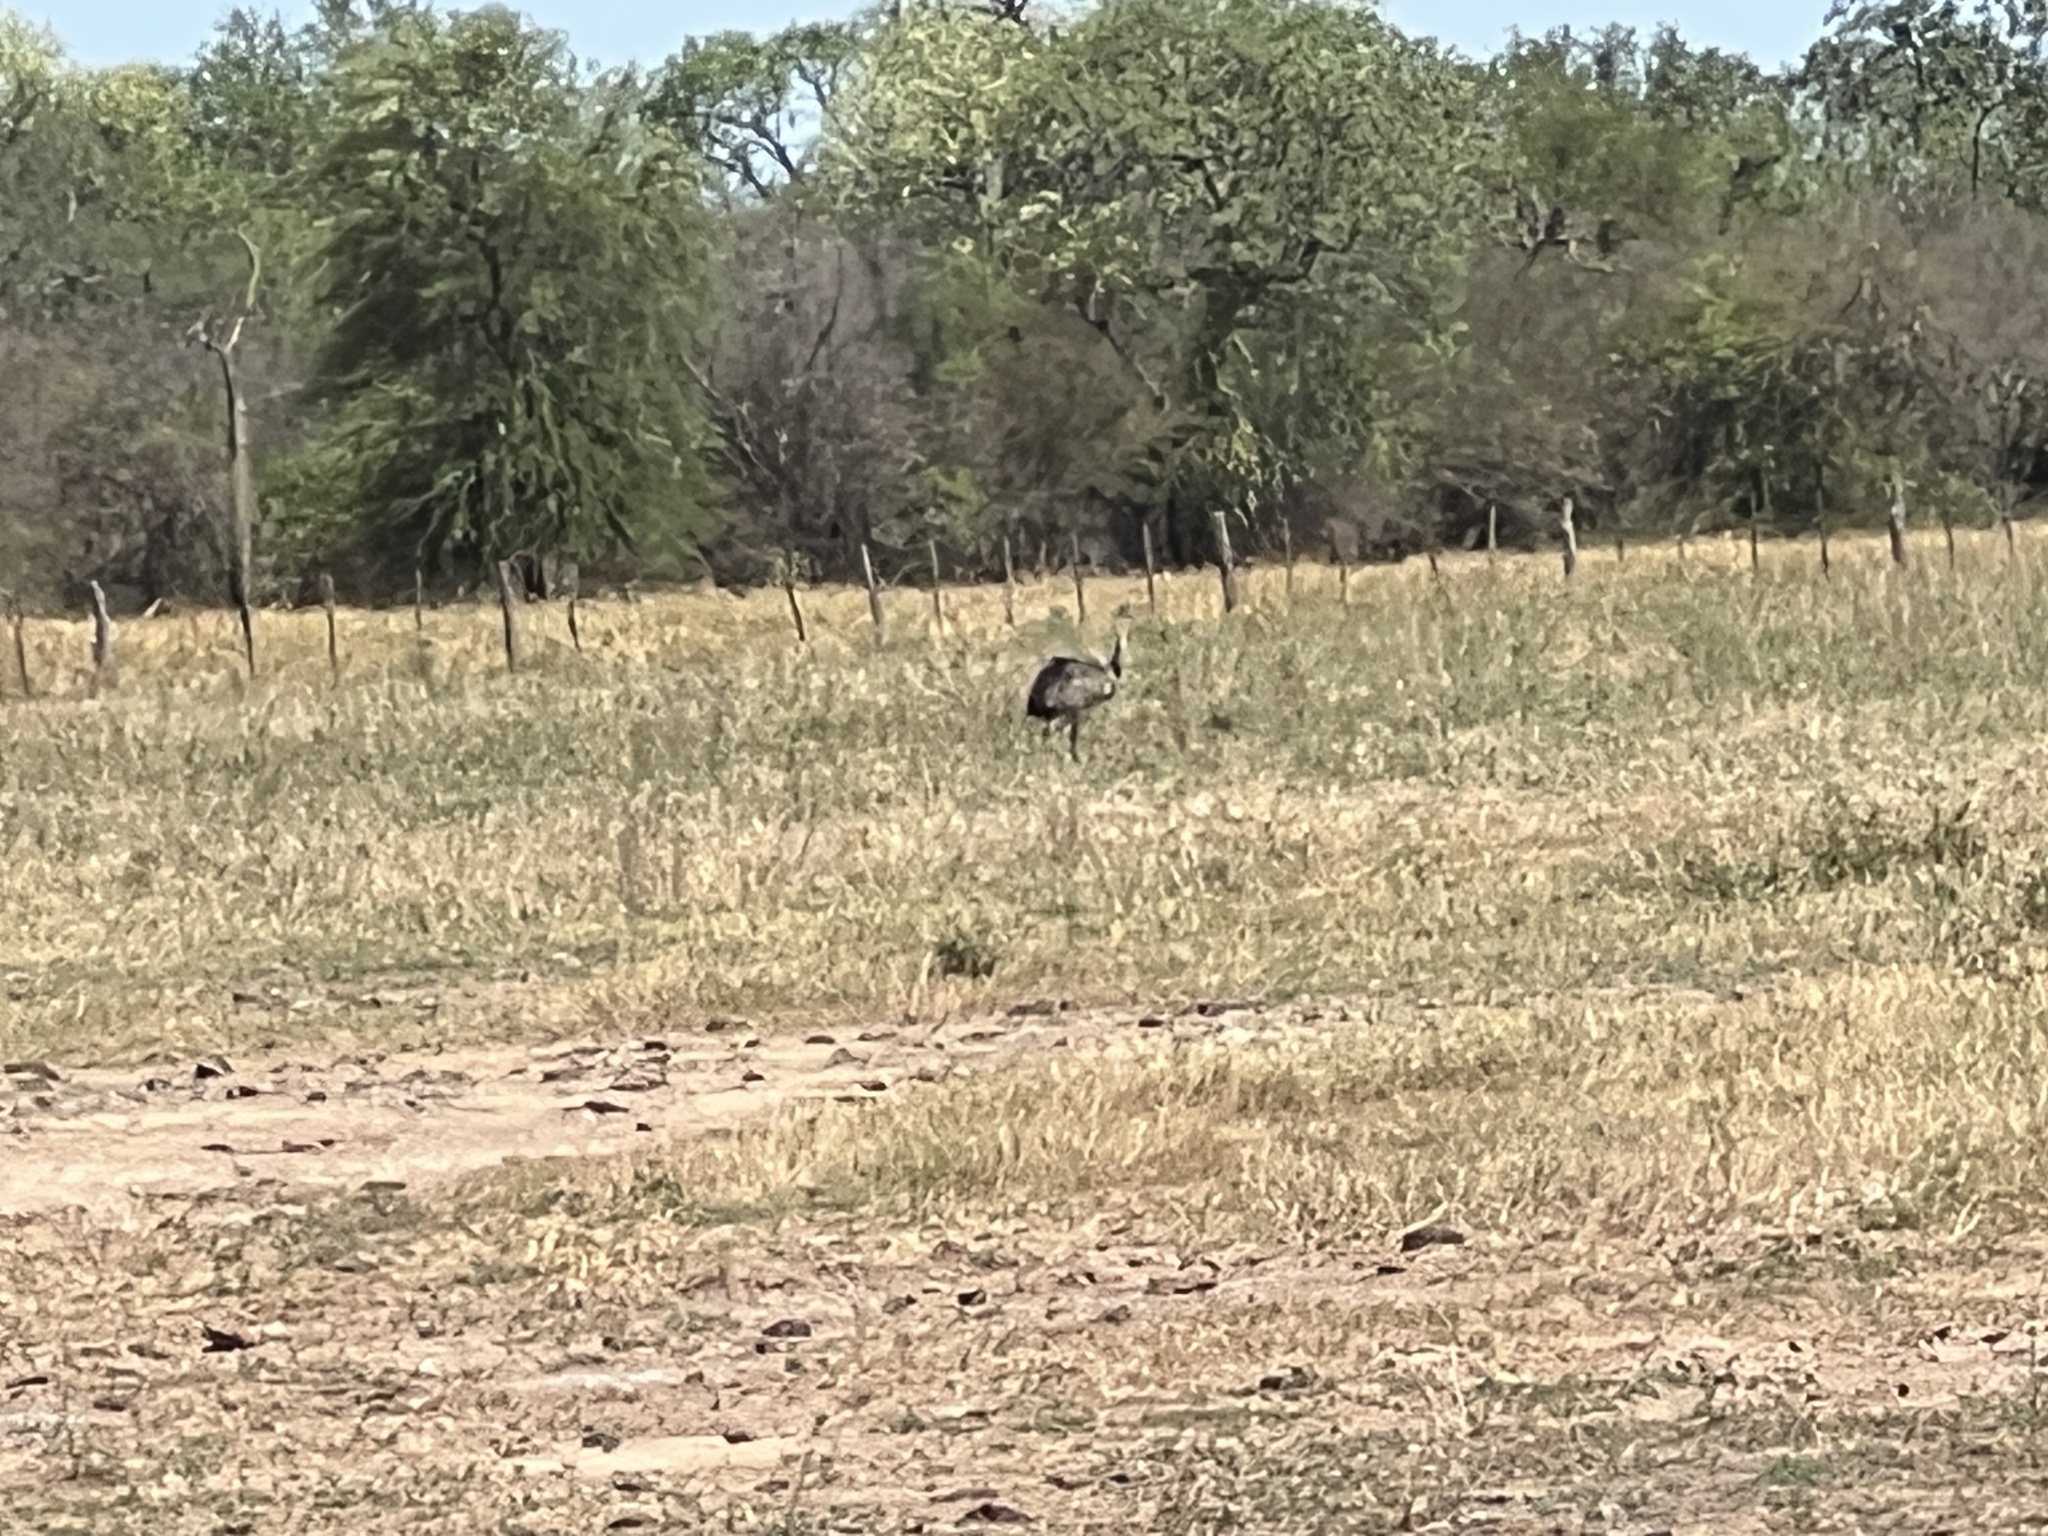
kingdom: Animalia
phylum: Chordata
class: Aves
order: Rheiformes
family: Rheidae
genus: Rhea
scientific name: Rhea americana
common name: Greater rhea
